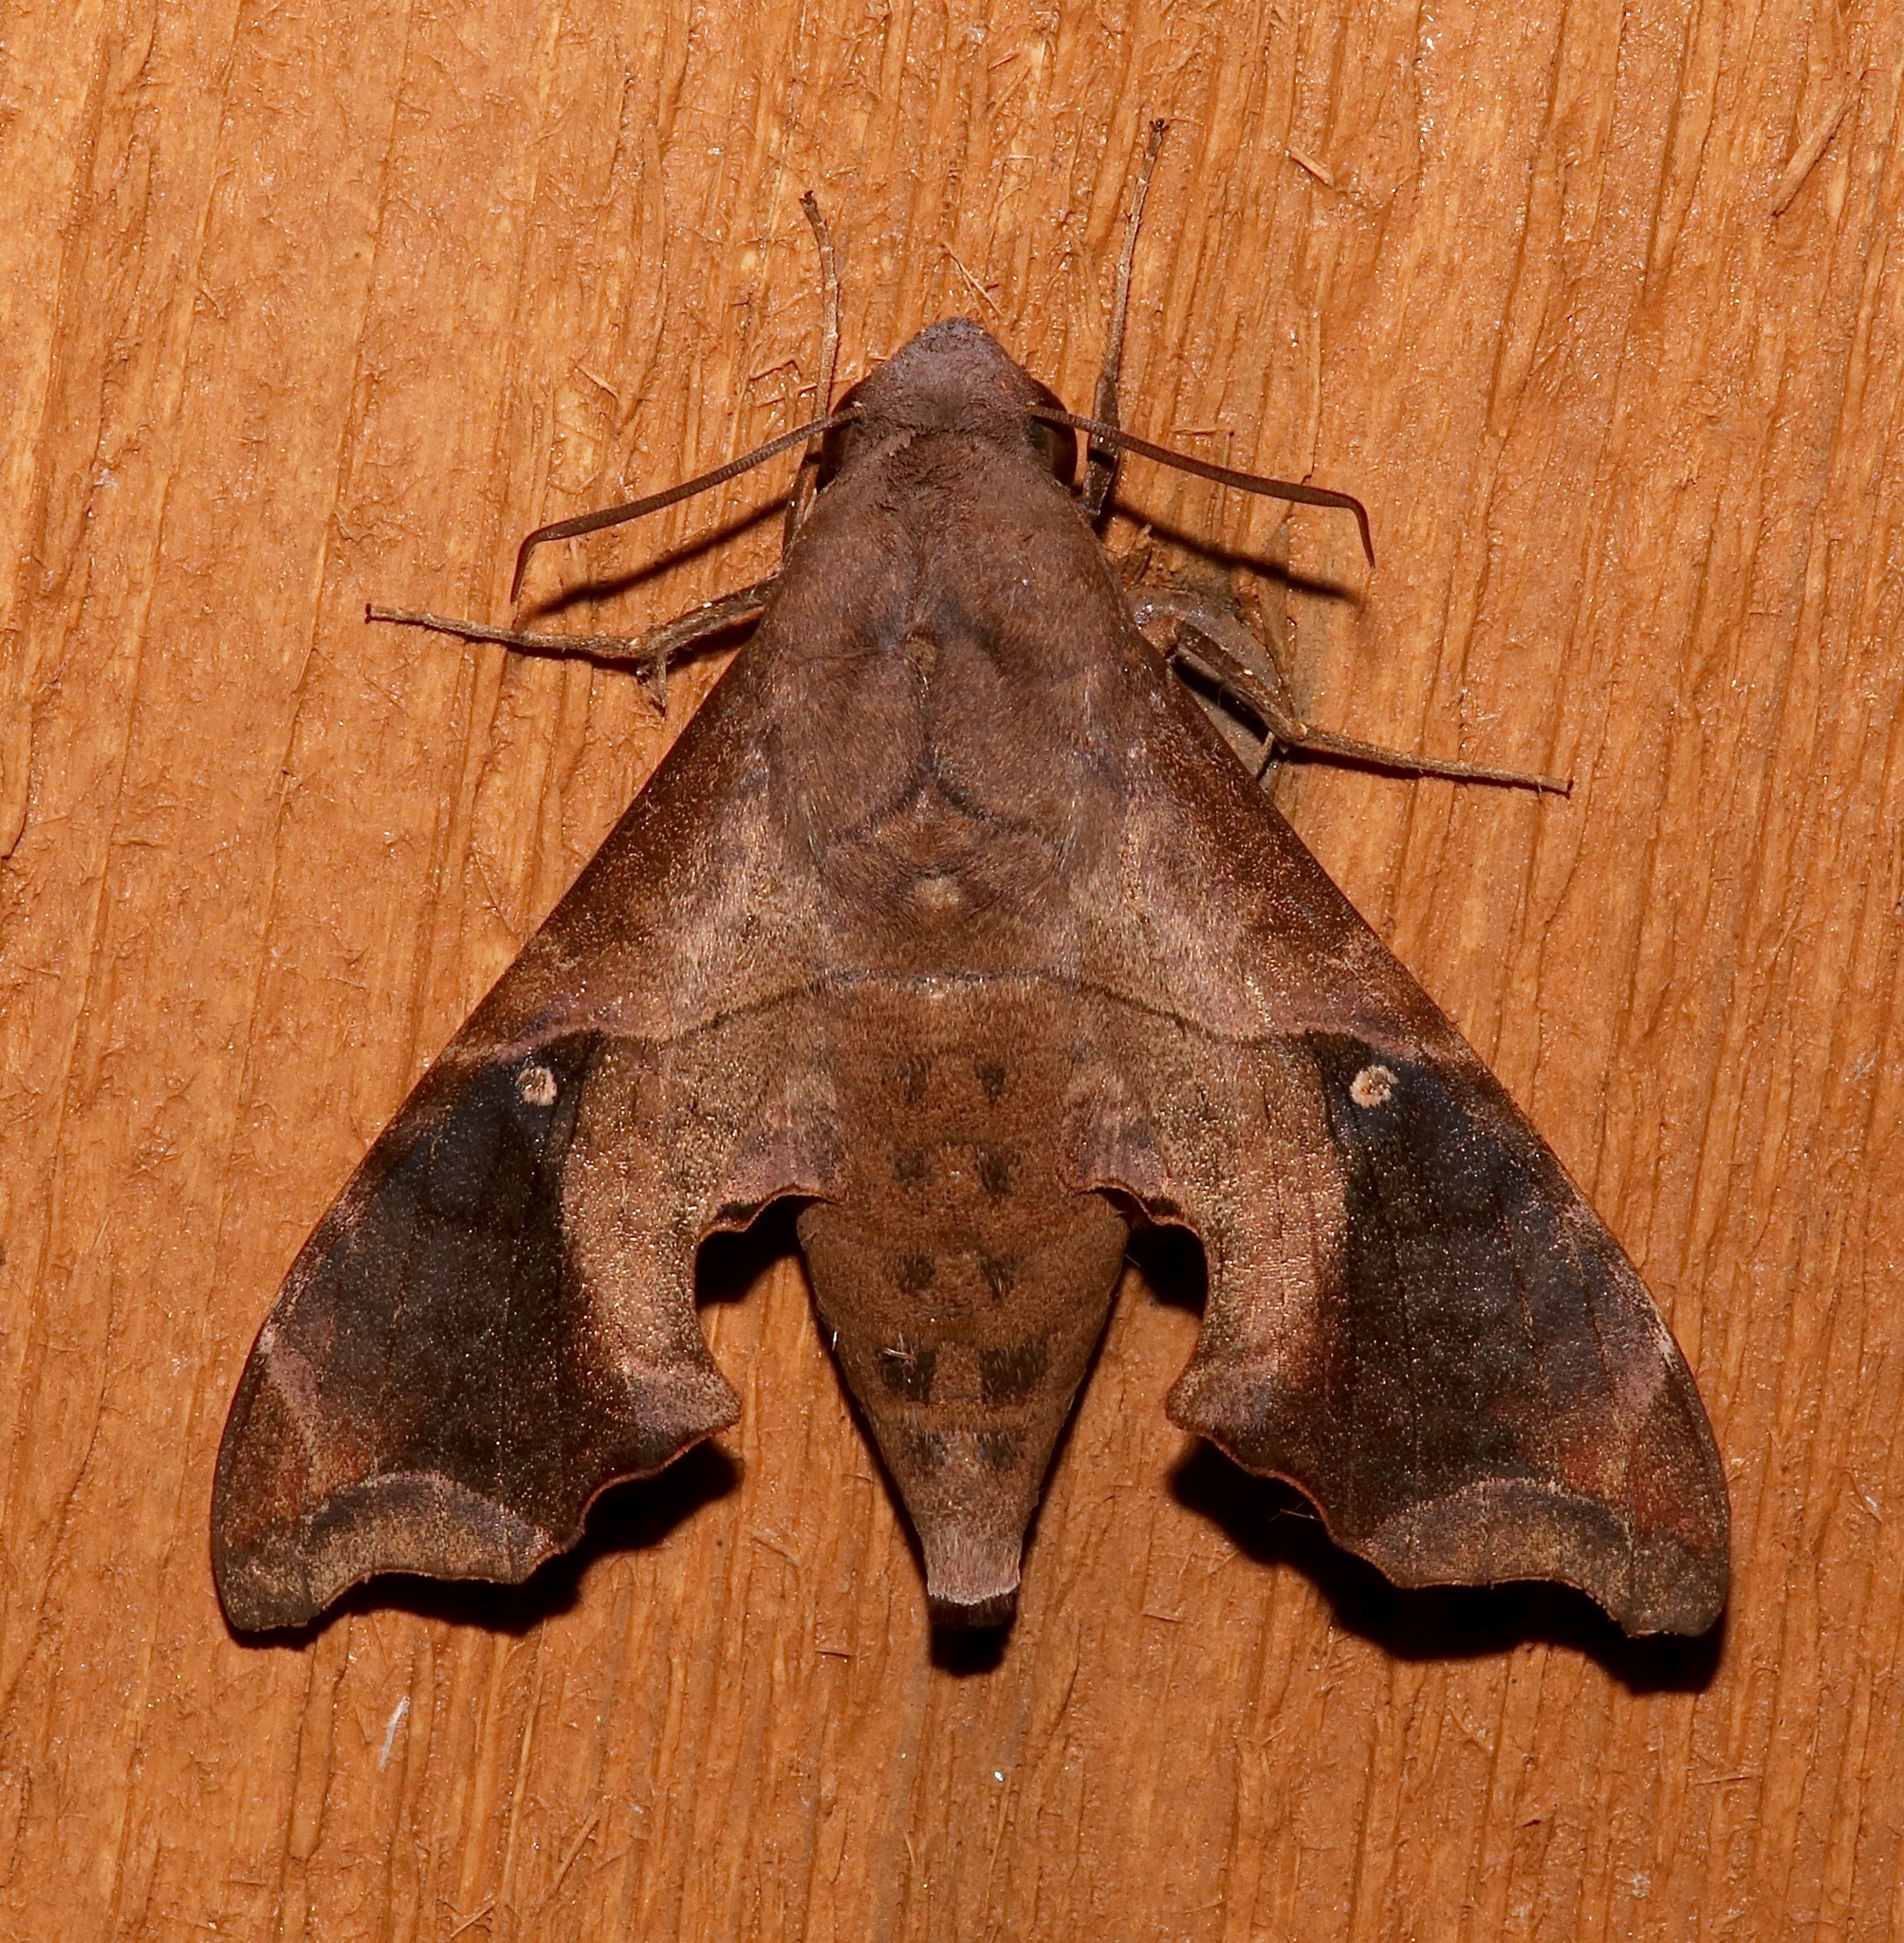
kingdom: Animalia
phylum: Arthropoda
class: Insecta
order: Lepidoptera
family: Sphingidae
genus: Enyo
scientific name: Enyo lugubris
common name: Mournful sphinx
